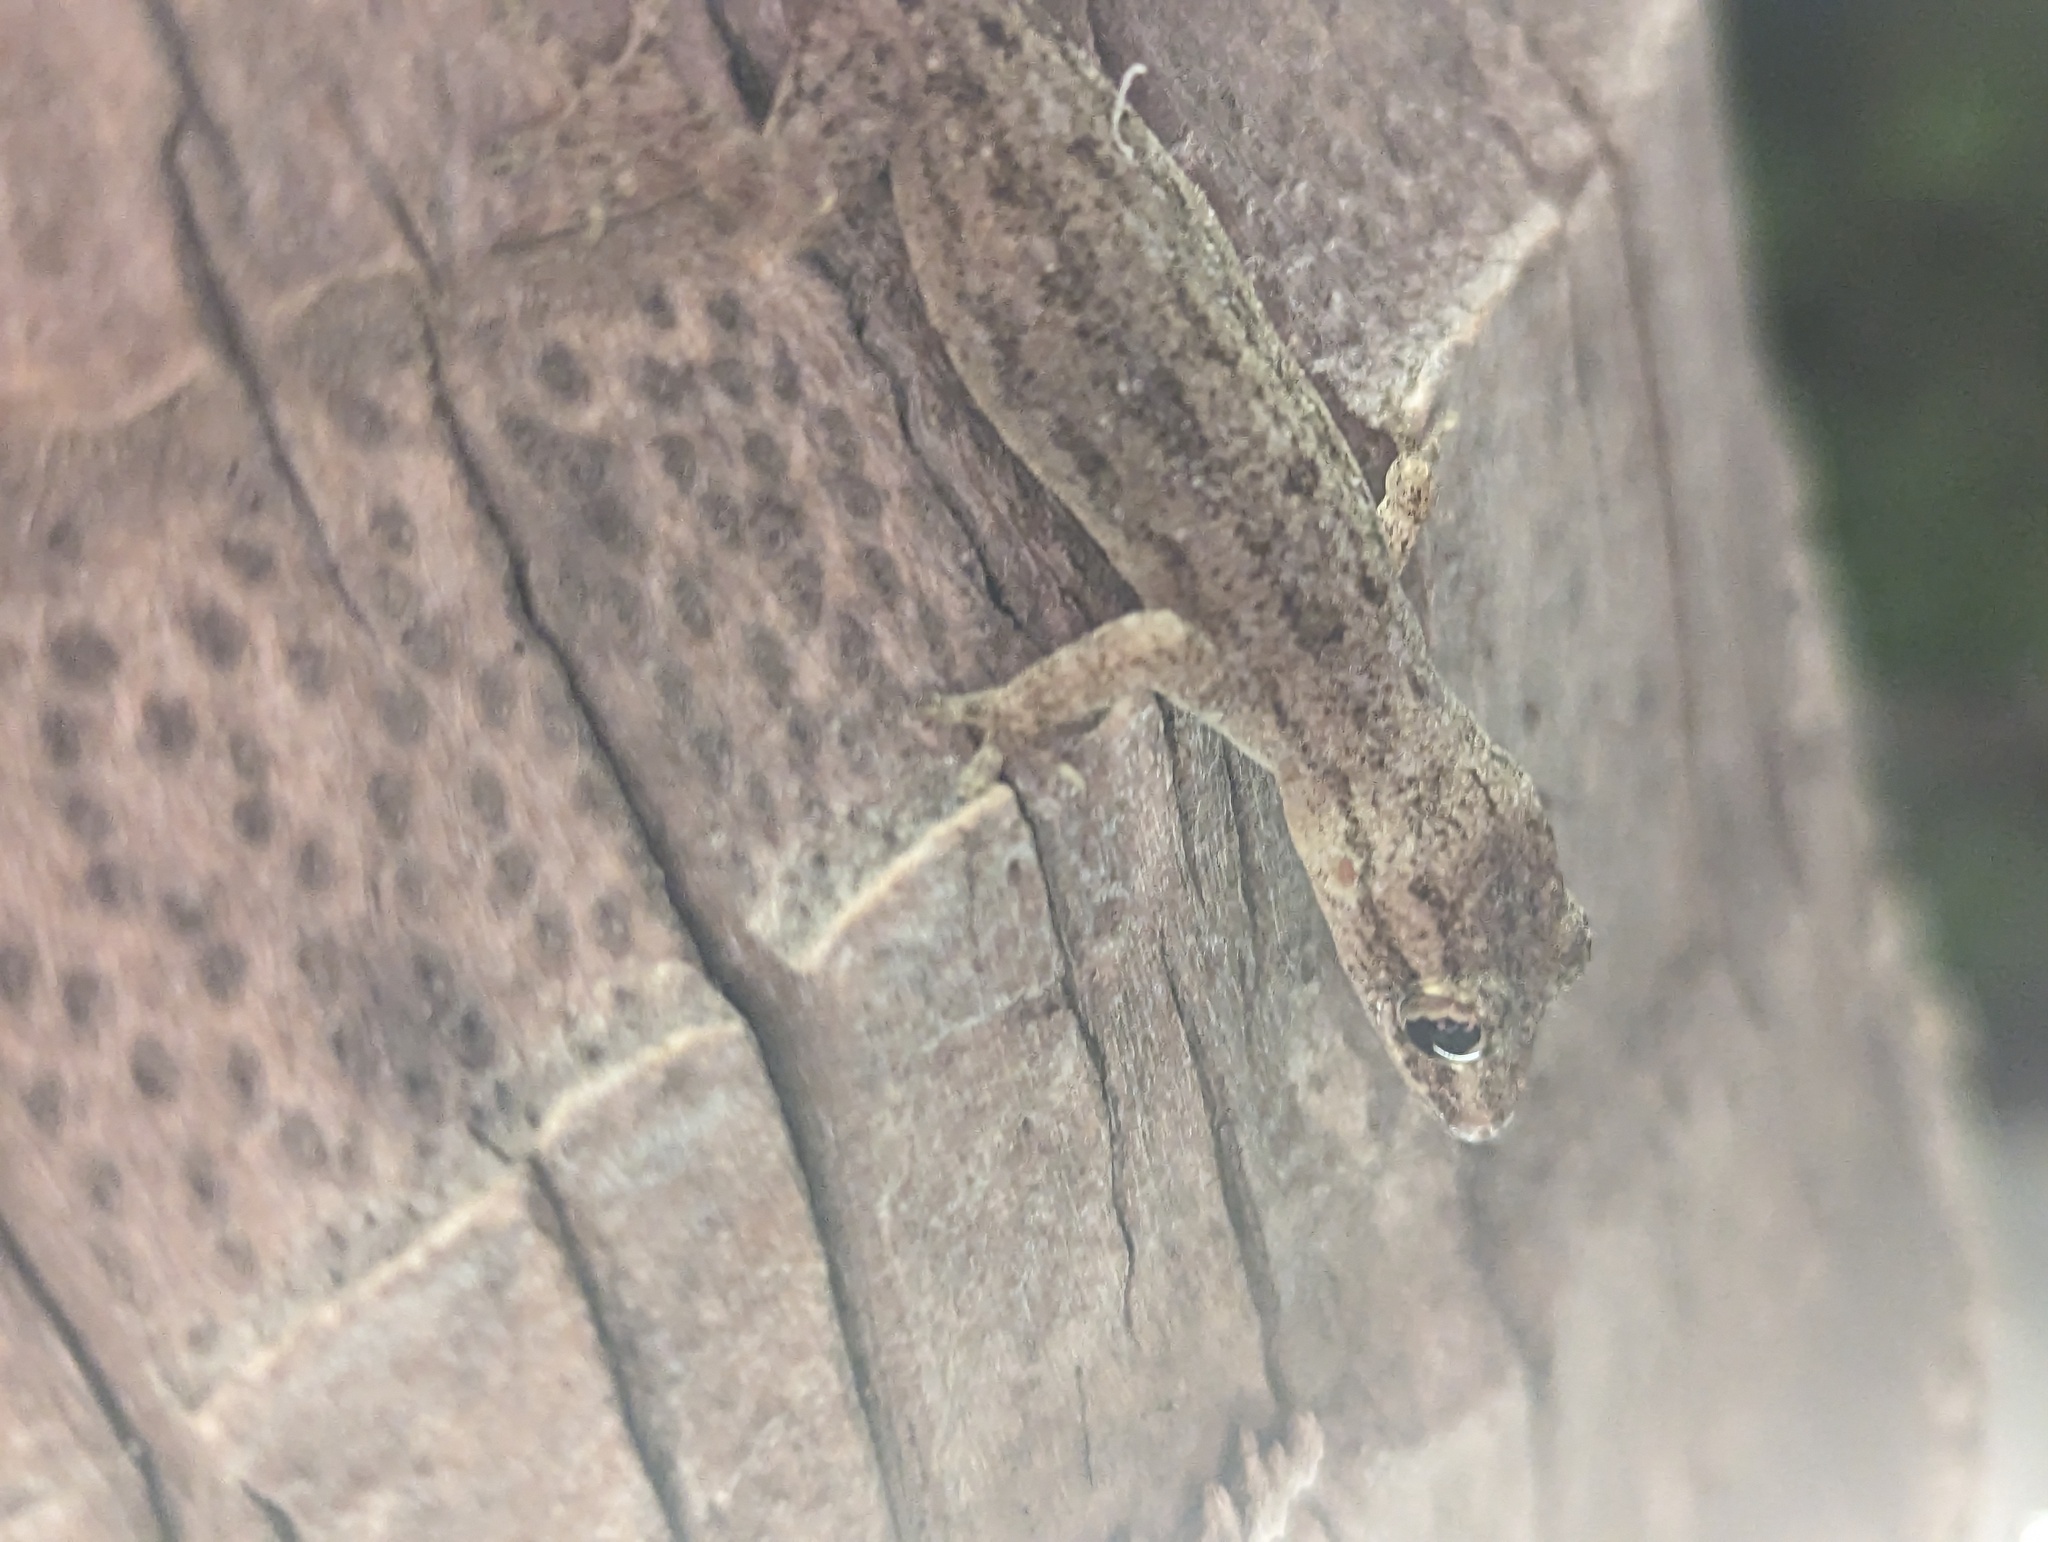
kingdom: Animalia
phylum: Chordata
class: Squamata
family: Gekkonidae
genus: Hemidactylus
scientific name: Hemidactylus frenatus
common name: Common house gecko
